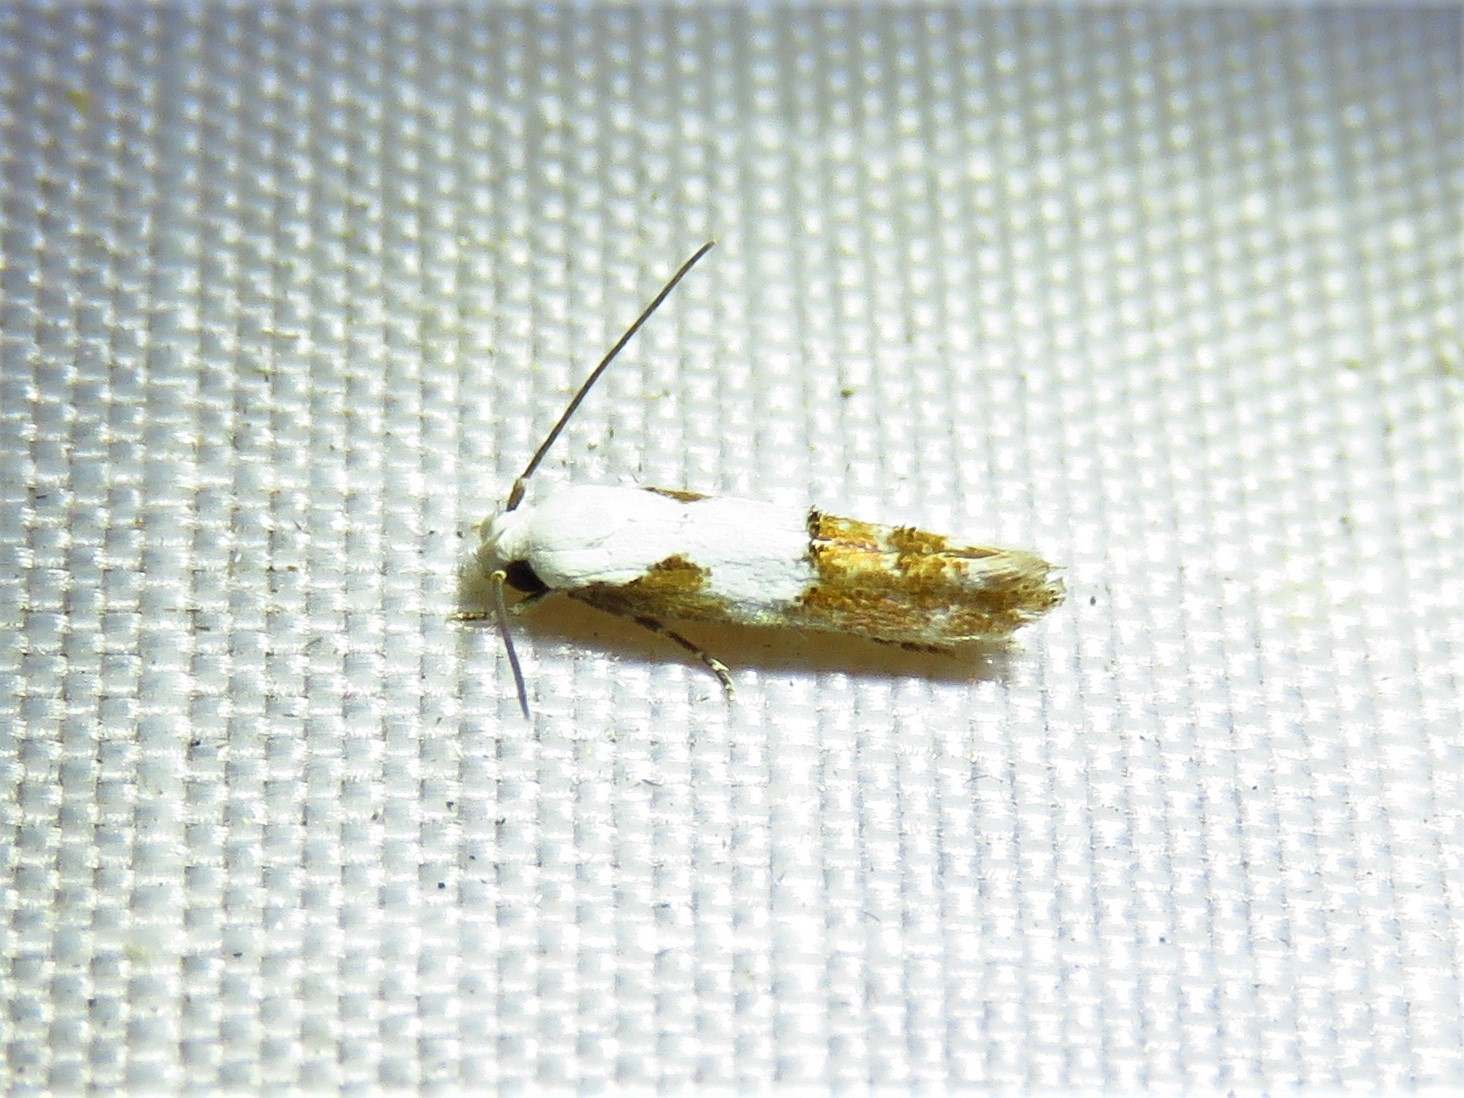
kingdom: Animalia
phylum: Arthropoda
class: Insecta
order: Lepidoptera
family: Momphidae
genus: Mompha
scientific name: Mompha circumscriptella
